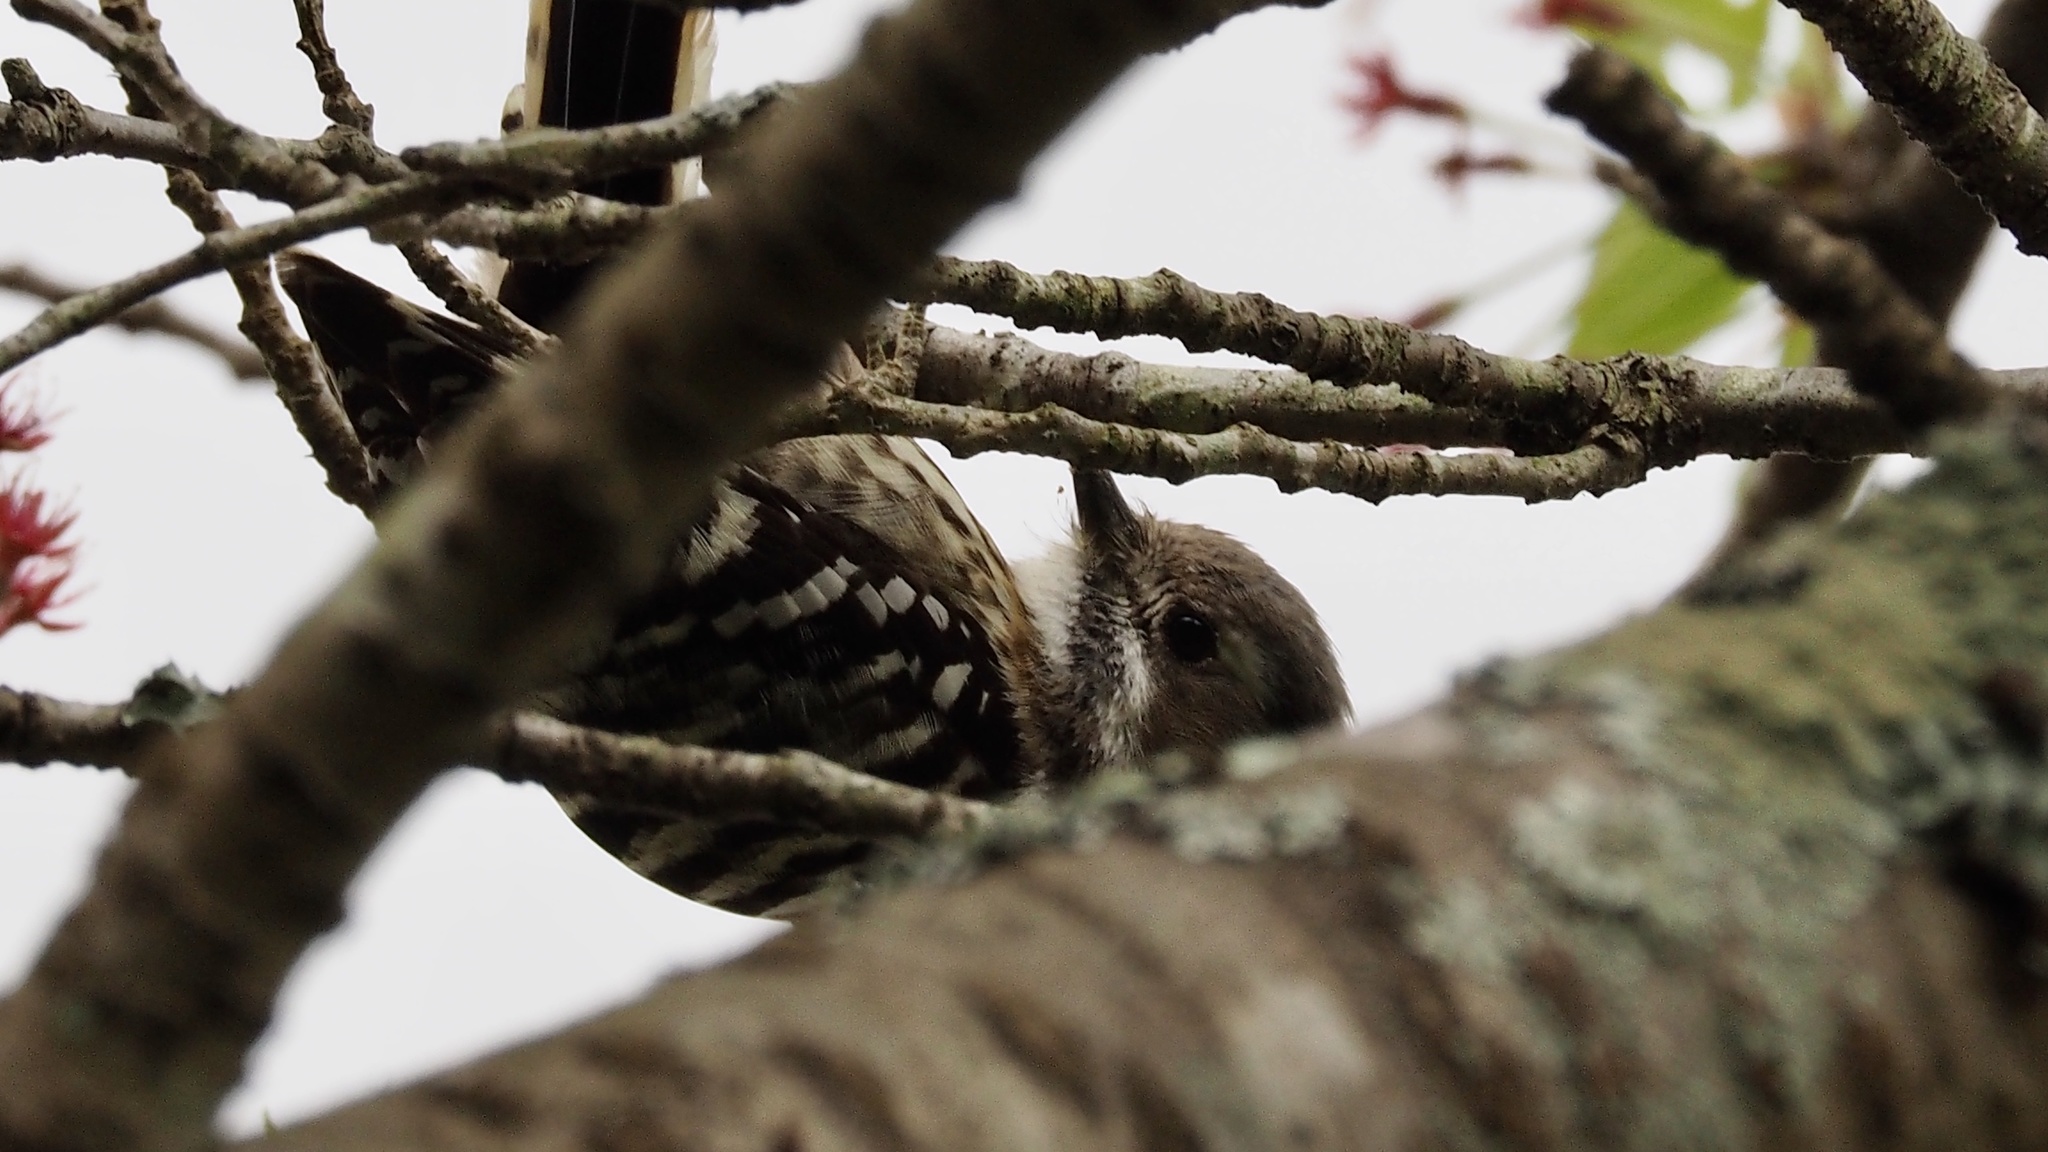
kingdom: Animalia
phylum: Chordata
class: Aves
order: Piciformes
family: Picidae
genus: Yungipicus
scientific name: Yungipicus kizuki
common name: Japanese pygmy woodpecker
